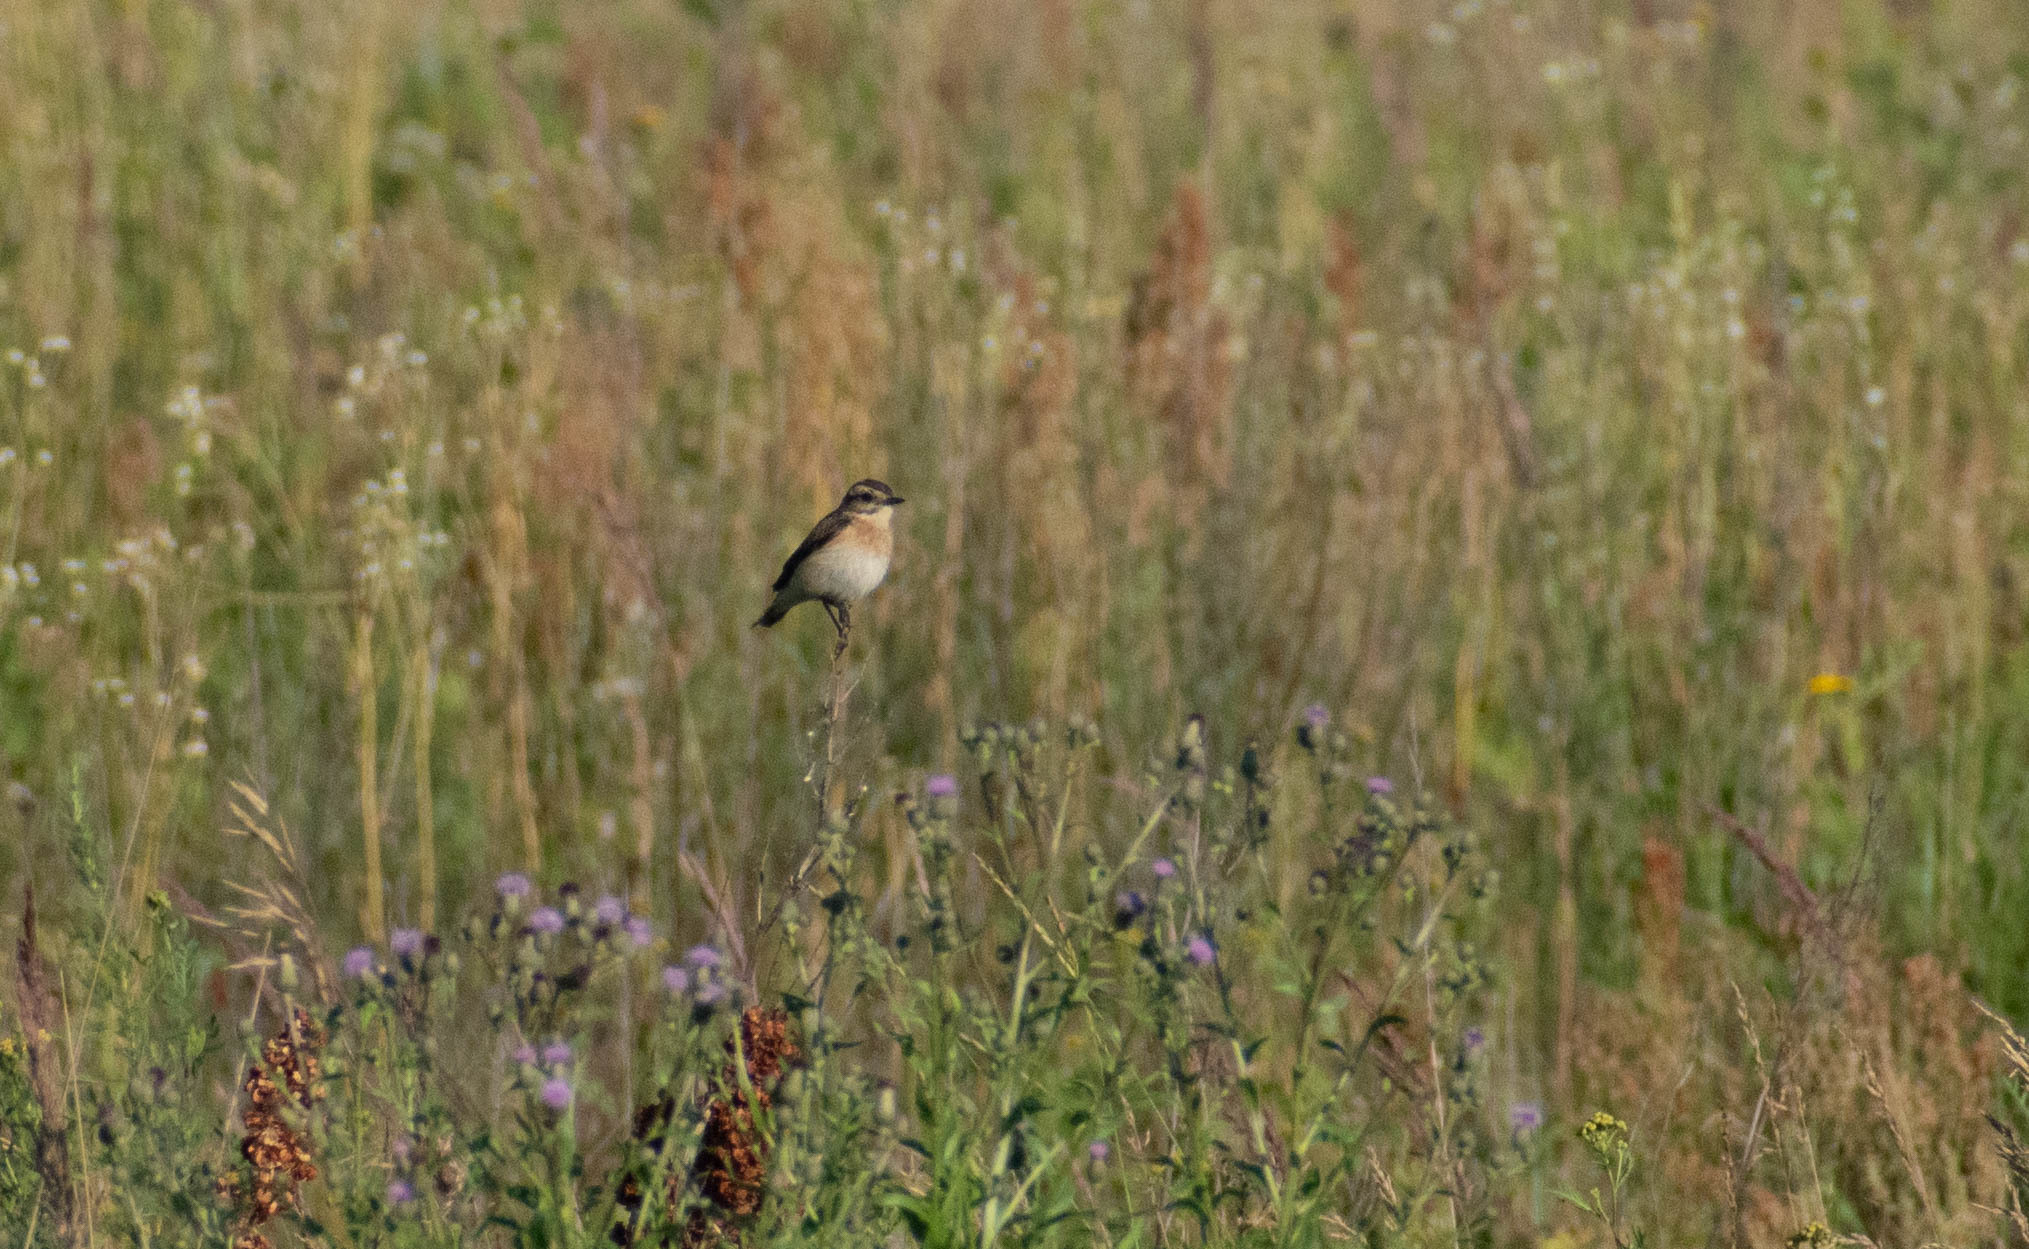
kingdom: Animalia
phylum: Chordata
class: Aves
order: Passeriformes
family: Muscicapidae
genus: Saxicola
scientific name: Saxicola rubetra
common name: Whinchat
